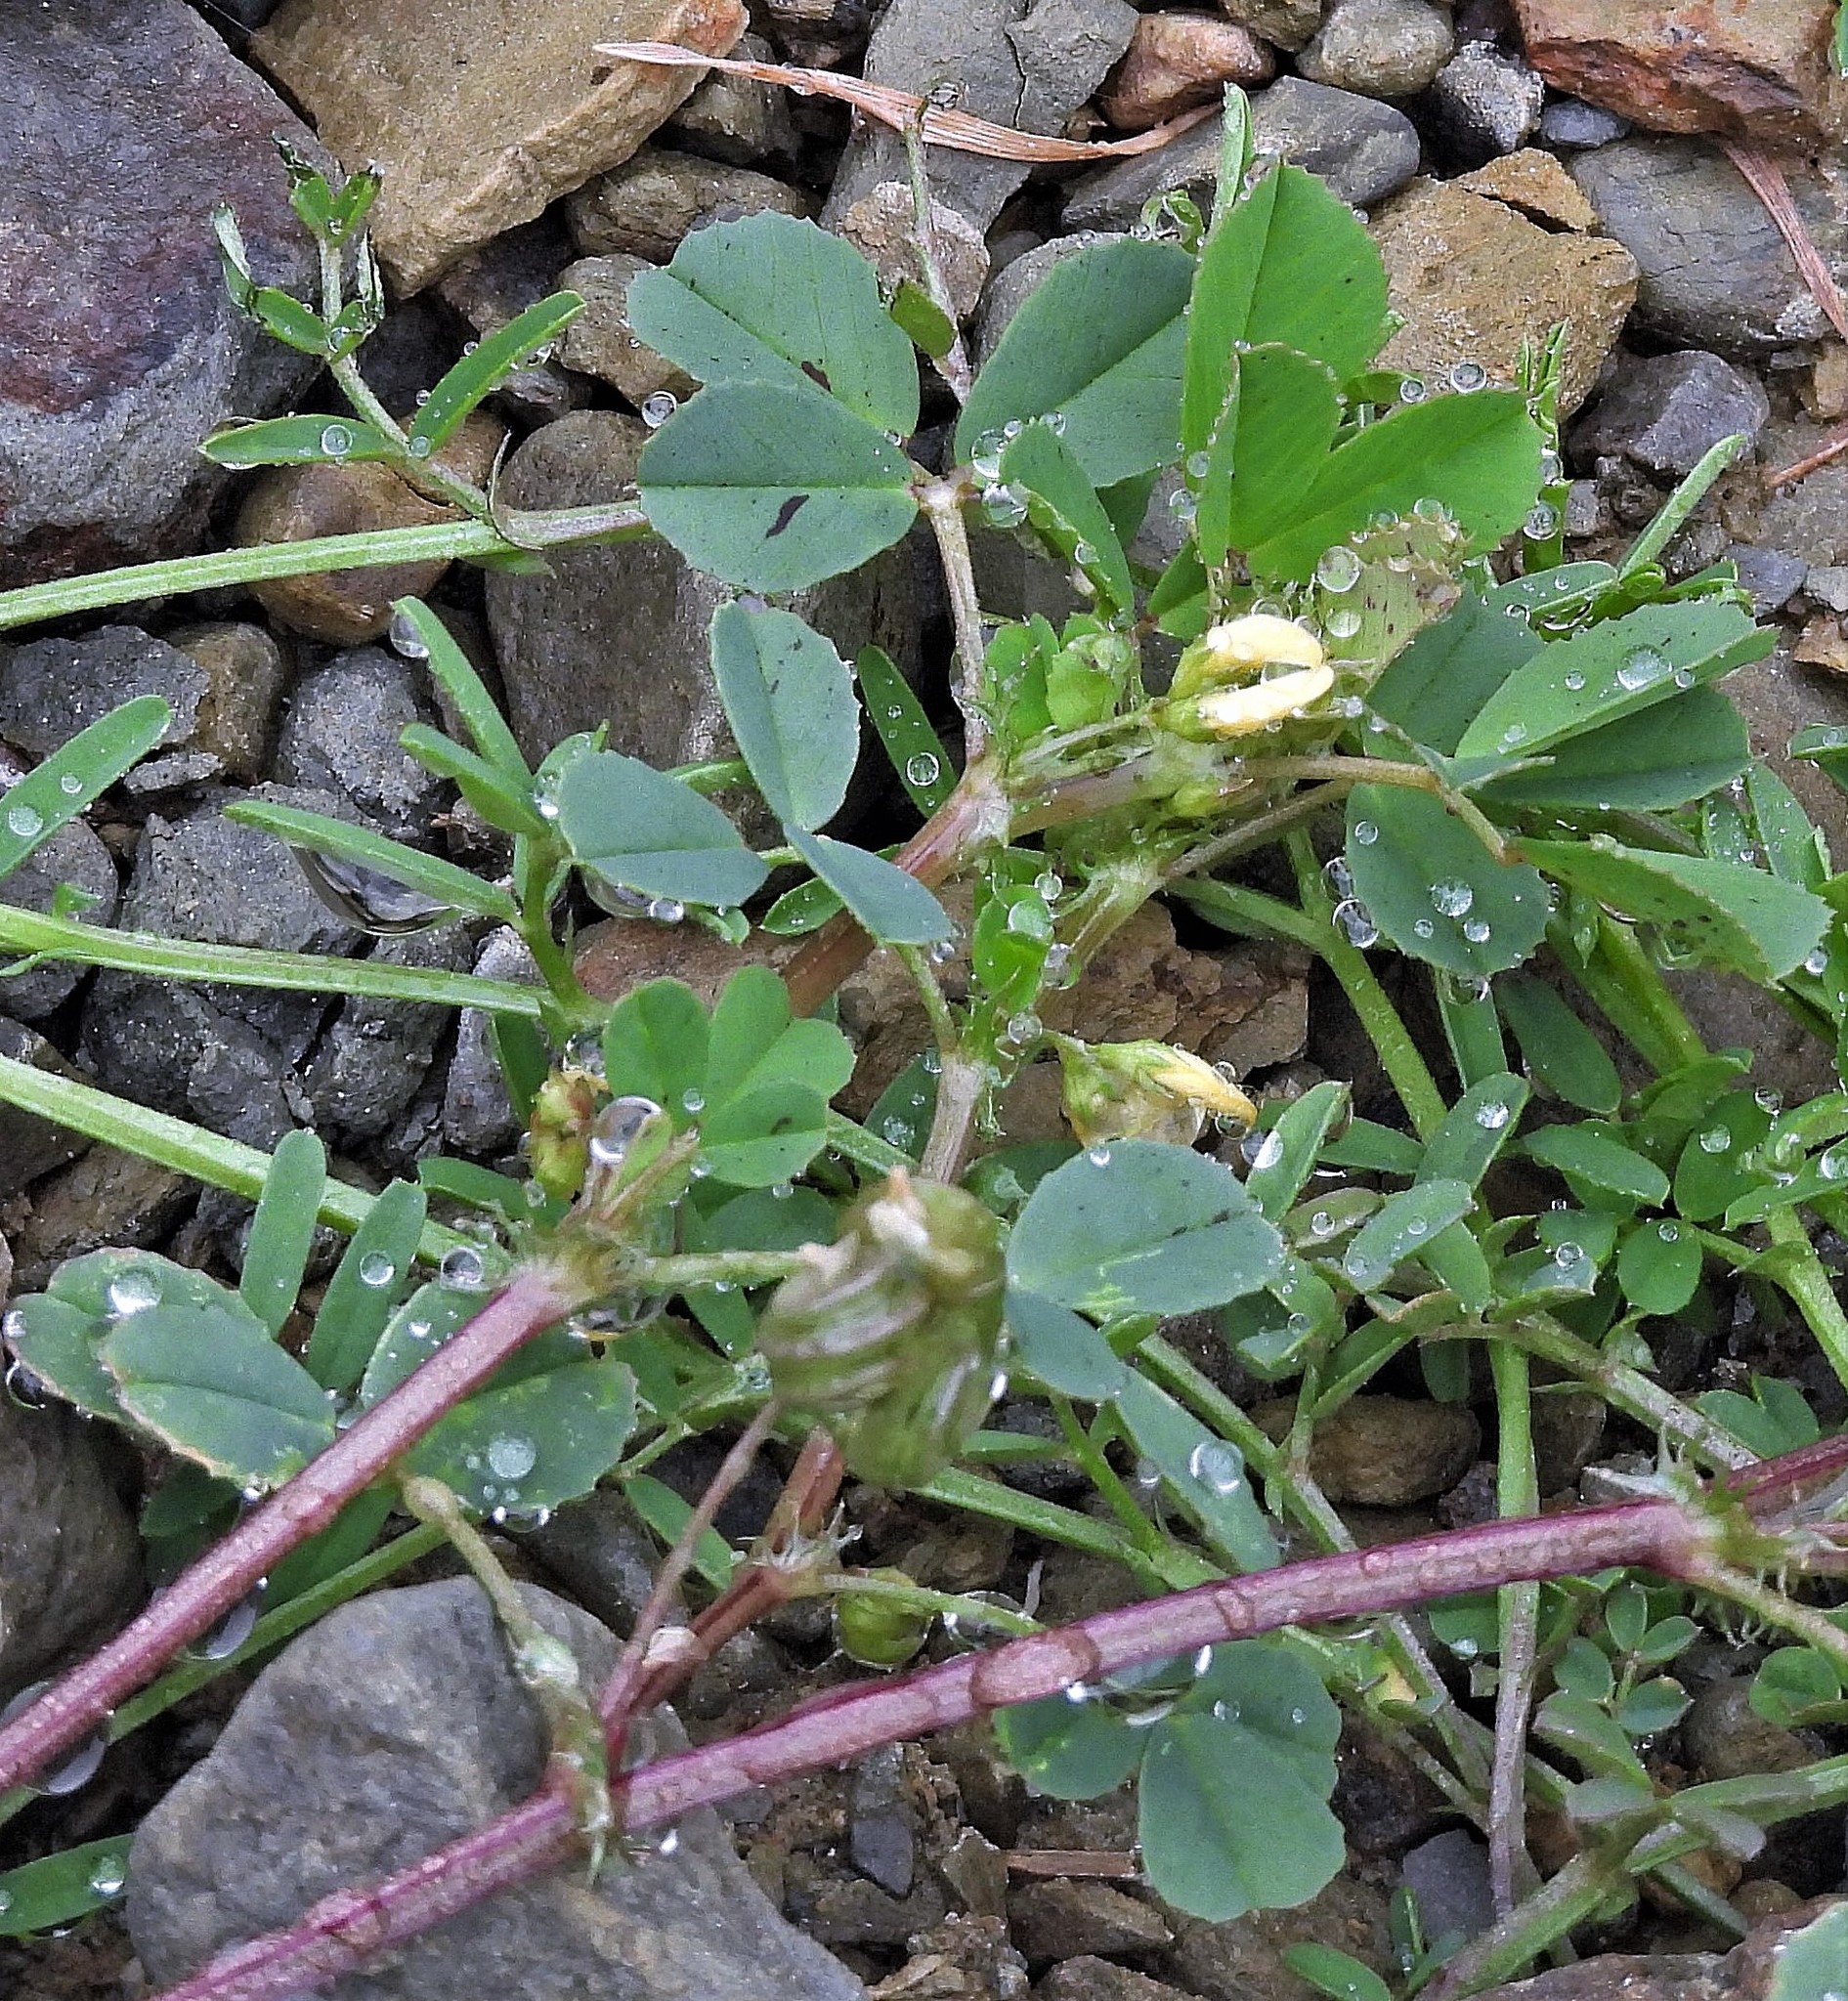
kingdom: Plantae
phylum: Tracheophyta
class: Magnoliopsida
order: Fabales
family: Fabaceae
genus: Medicago
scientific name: Medicago polymorpha
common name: Burclover
